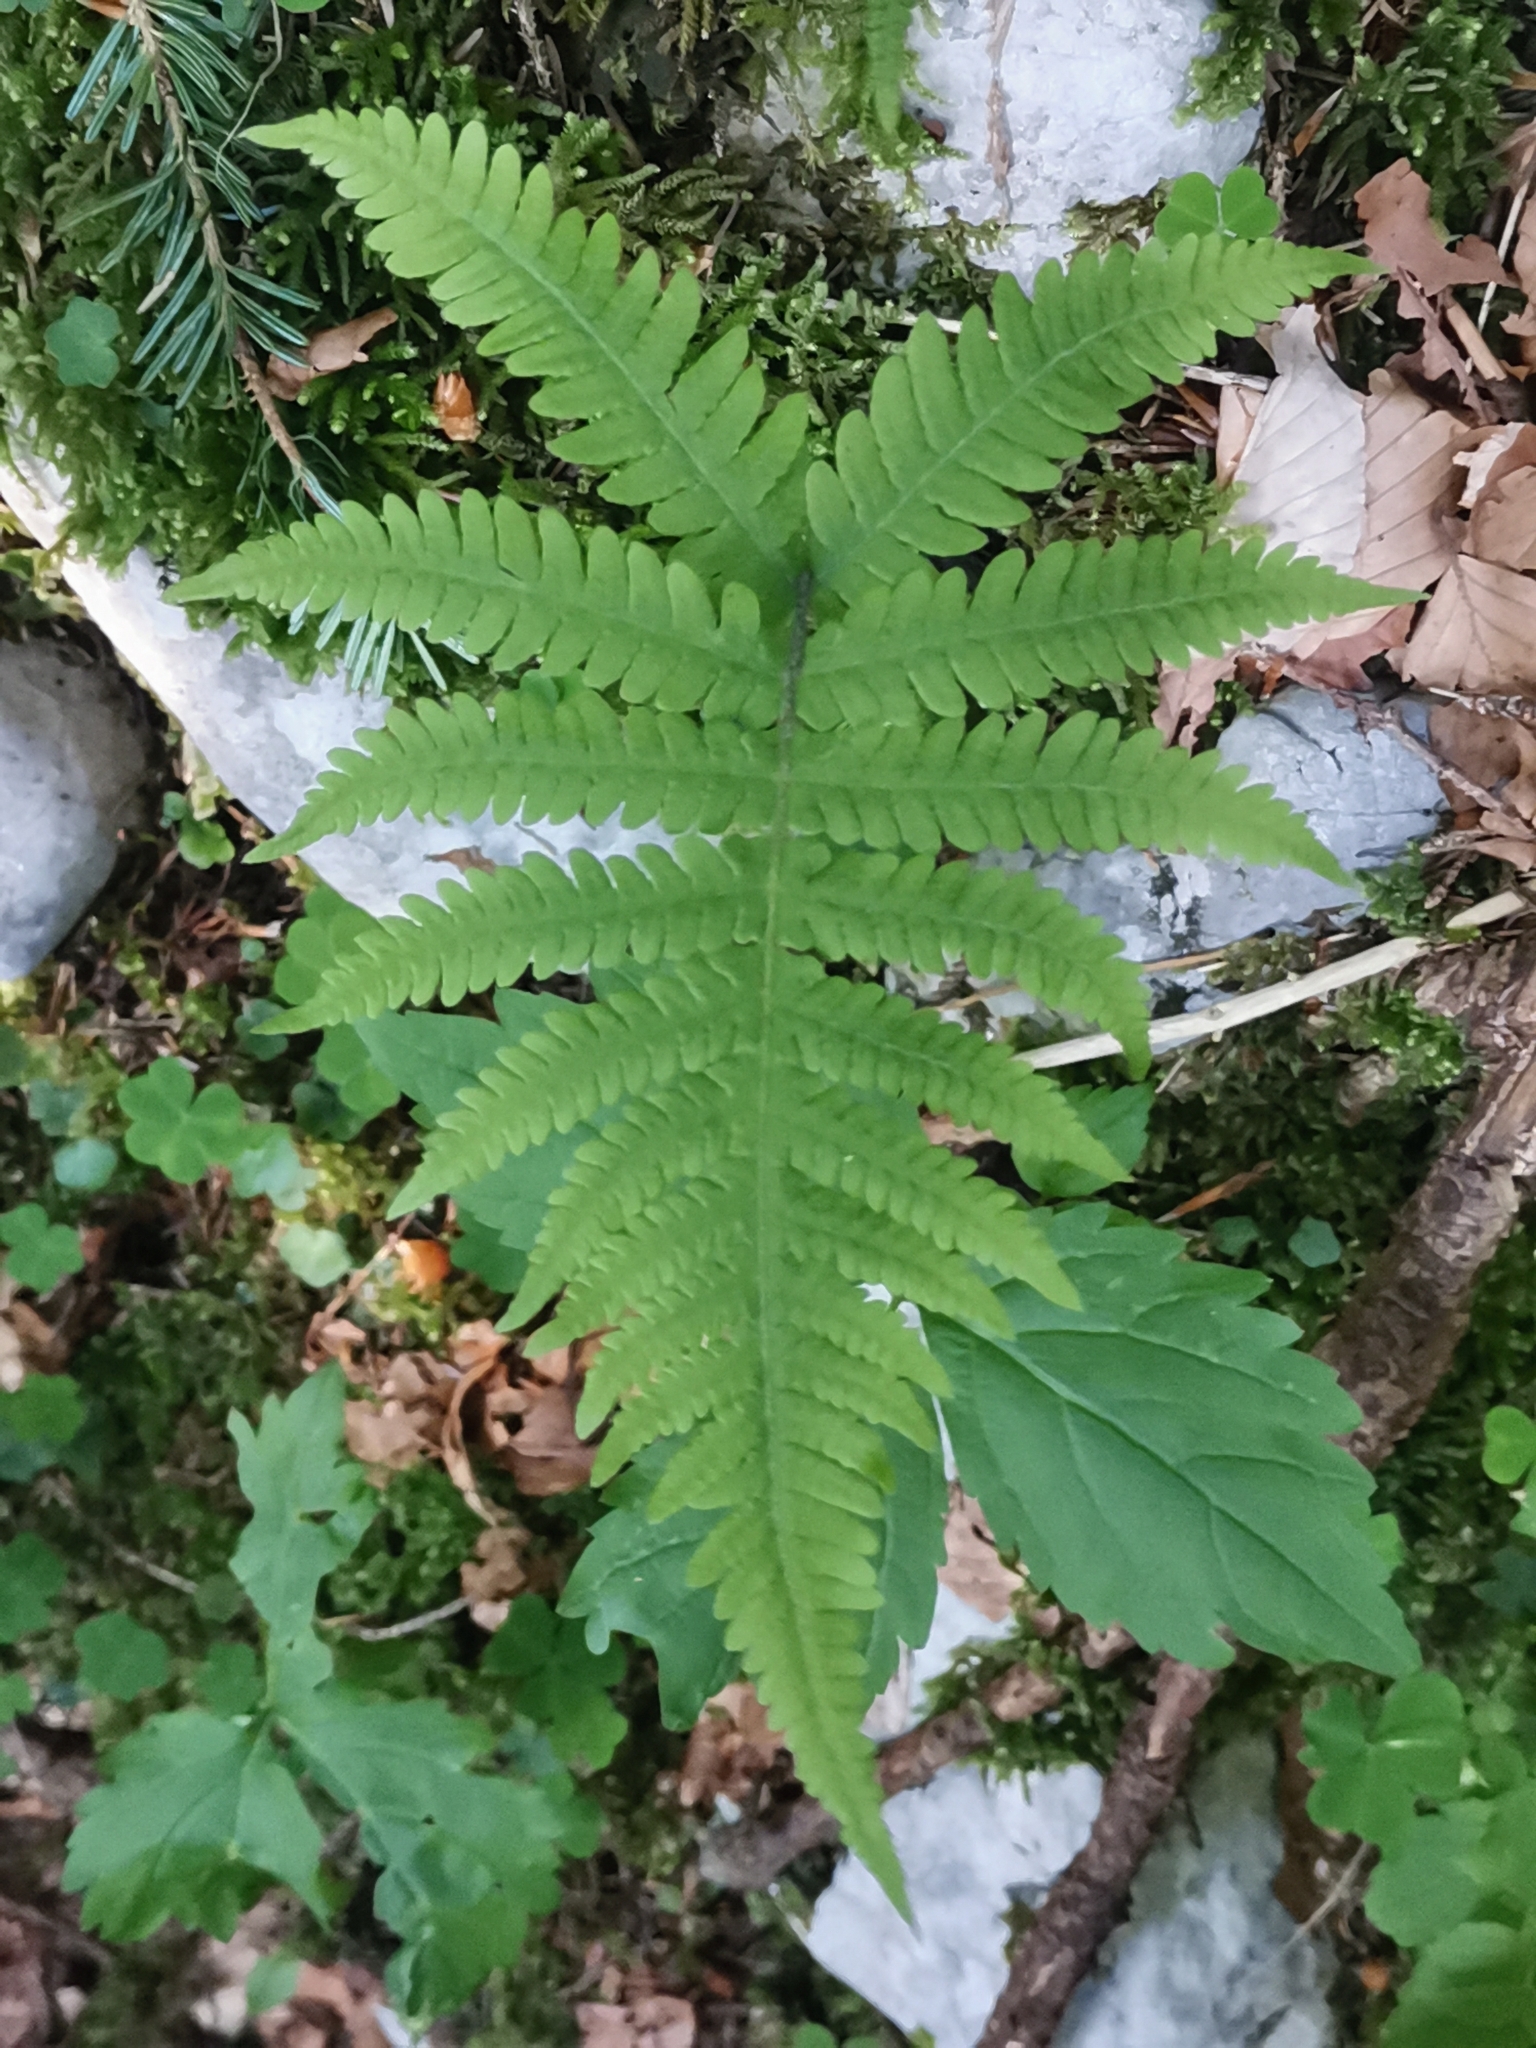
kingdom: Plantae
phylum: Tracheophyta
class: Polypodiopsida
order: Polypodiales
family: Thelypteridaceae
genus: Phegopteris
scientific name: Phegopteris connectilis
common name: Beech fern
